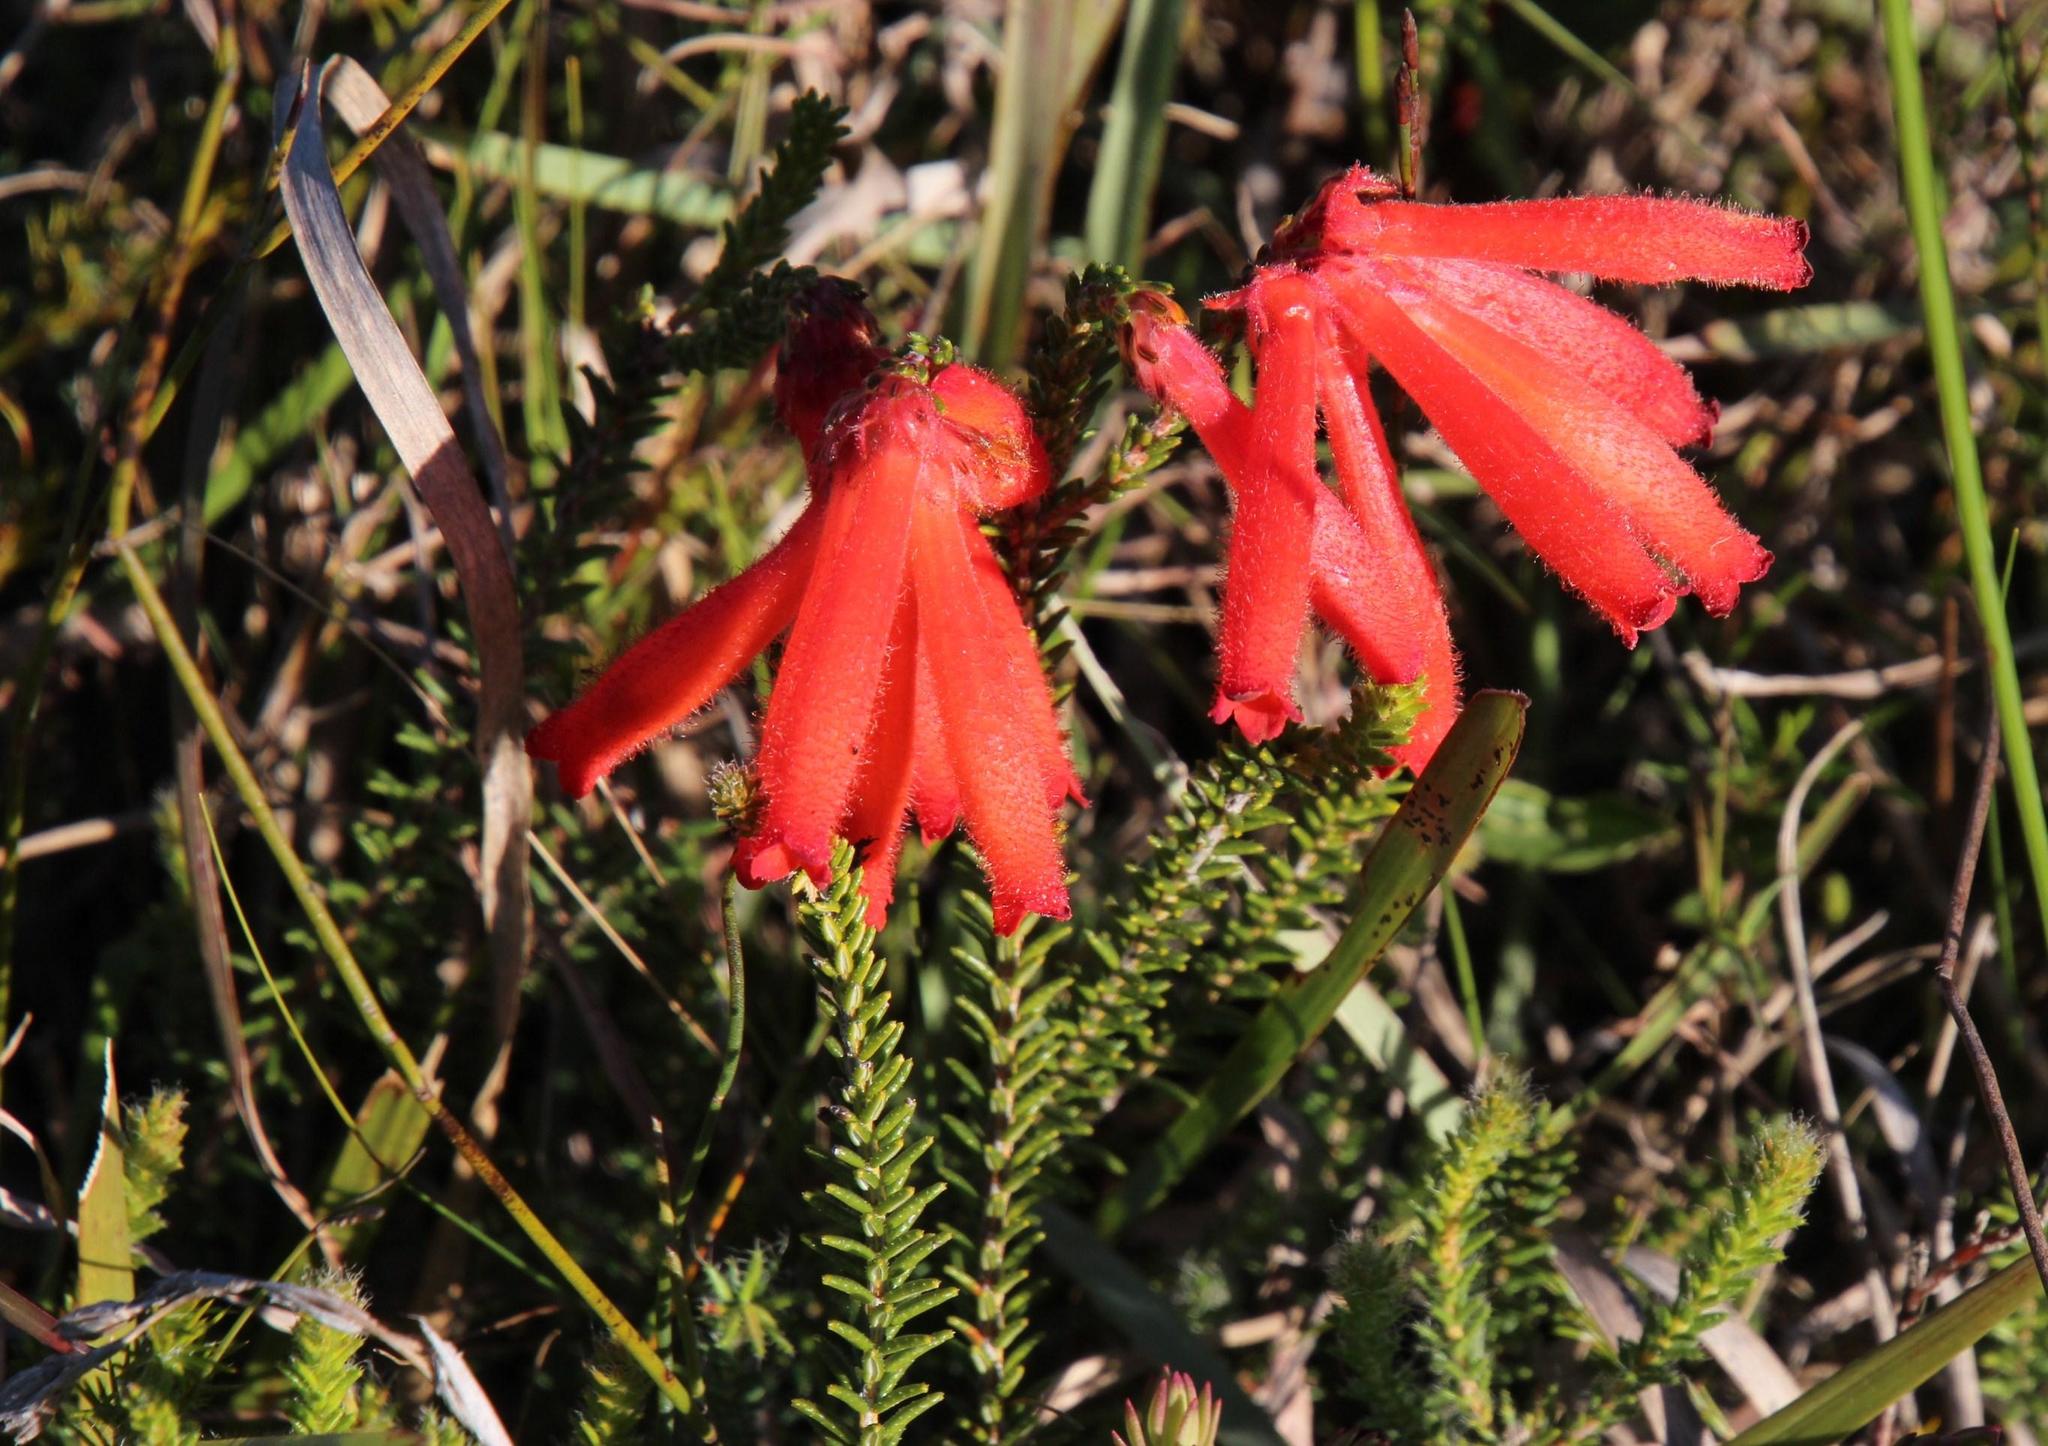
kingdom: Plantae
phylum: Tracheophyta
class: Magnoliopsida
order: Ericales
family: Ericaceae
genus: Erica
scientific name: Erica cerinthoides
